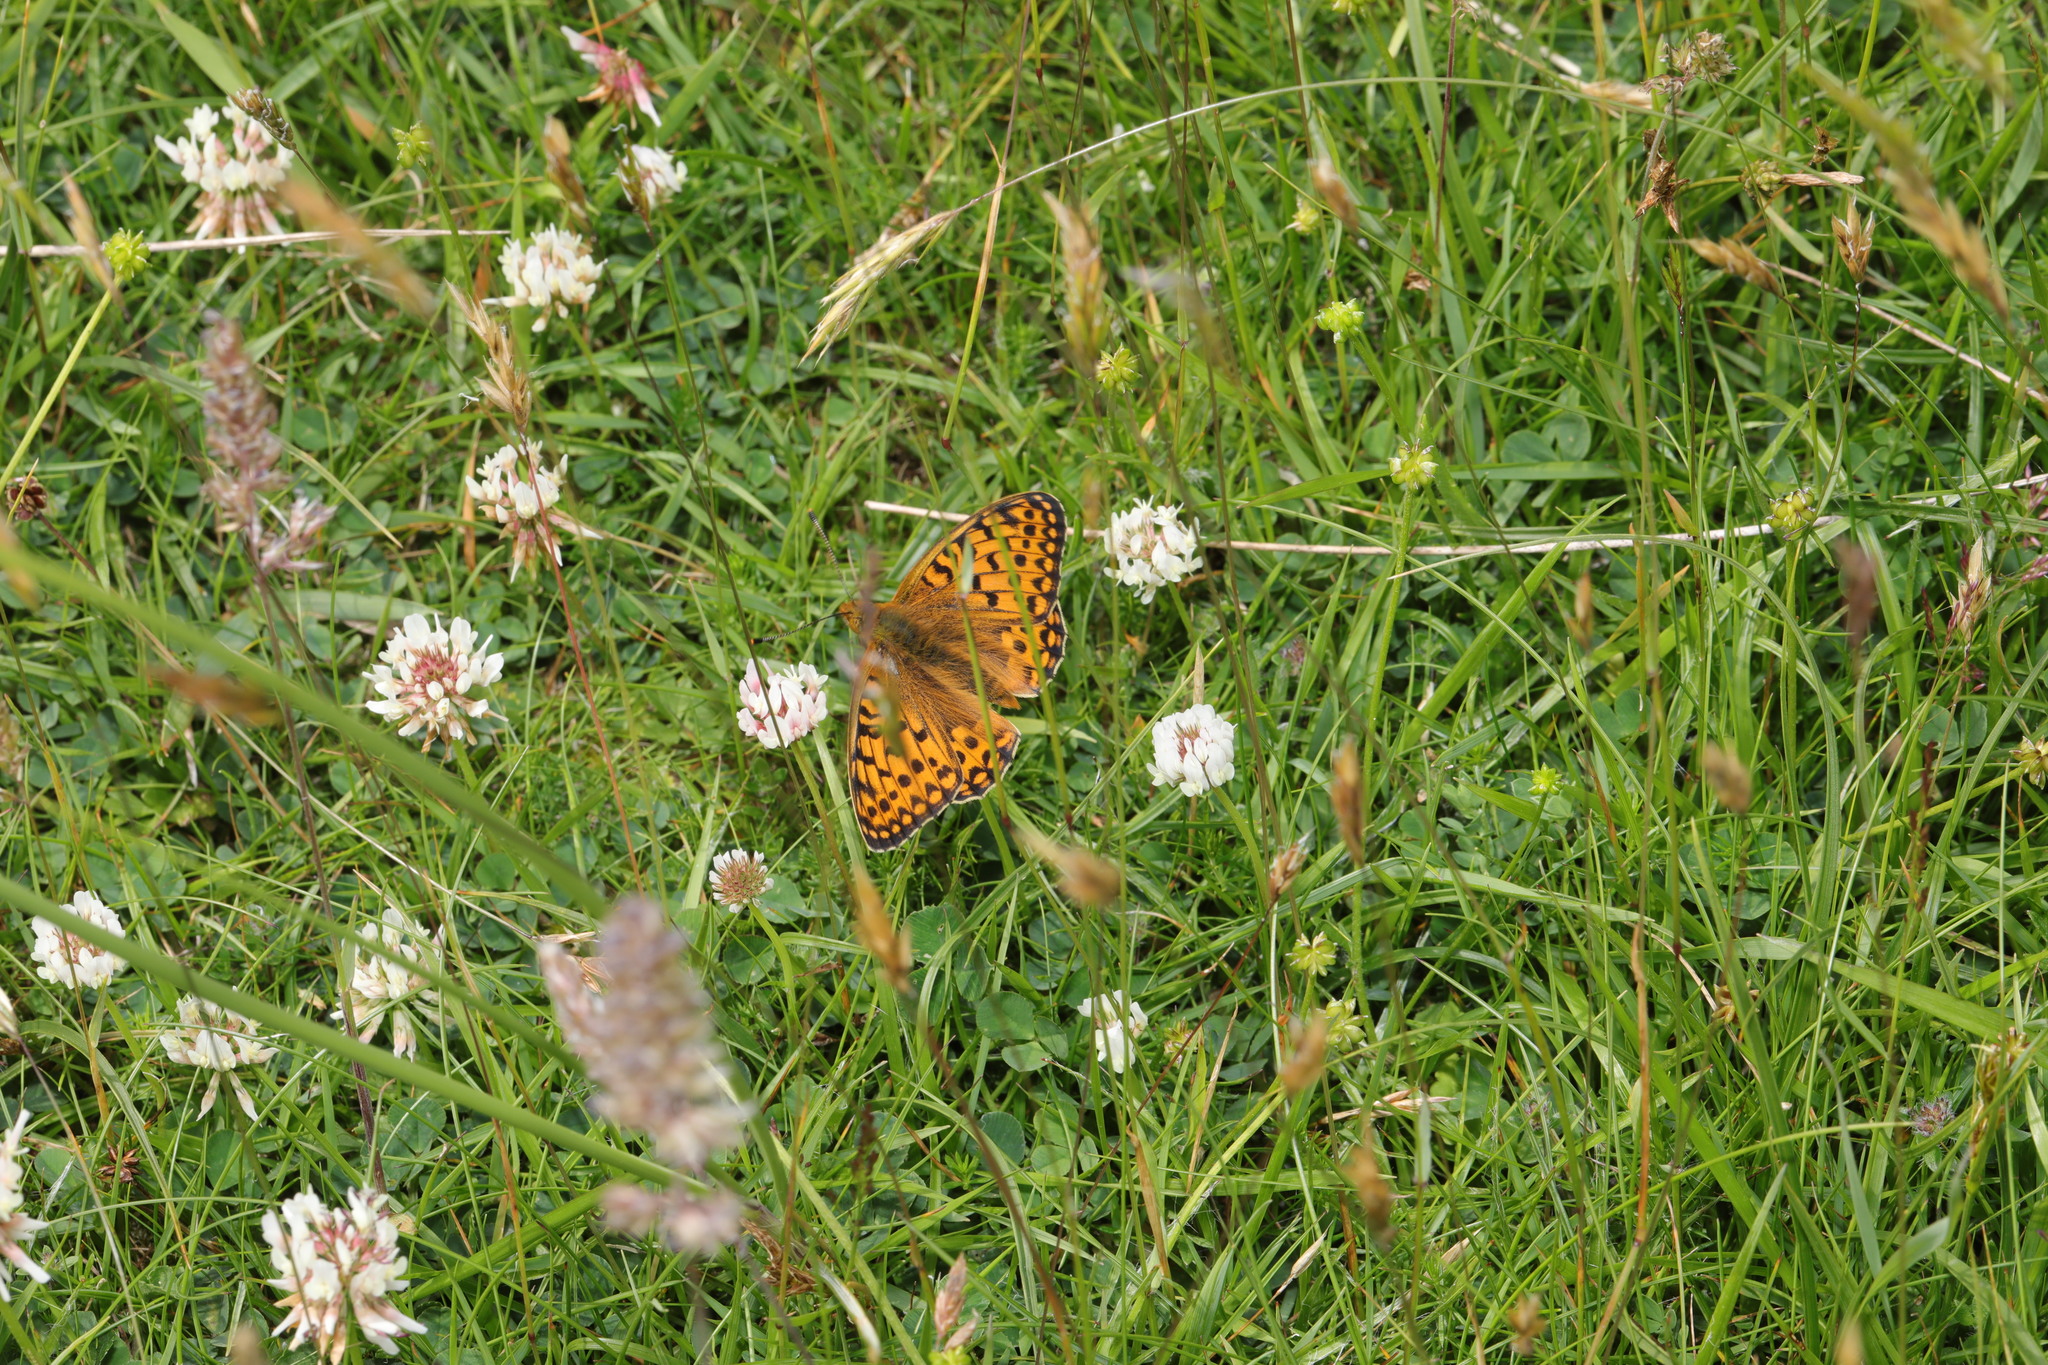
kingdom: Animalia
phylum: Arthropoda
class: Insecta
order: Lepidoptera
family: Nymphalidae
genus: Speyeria
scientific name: Speyeria aglaja
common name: Dark green fritillary
